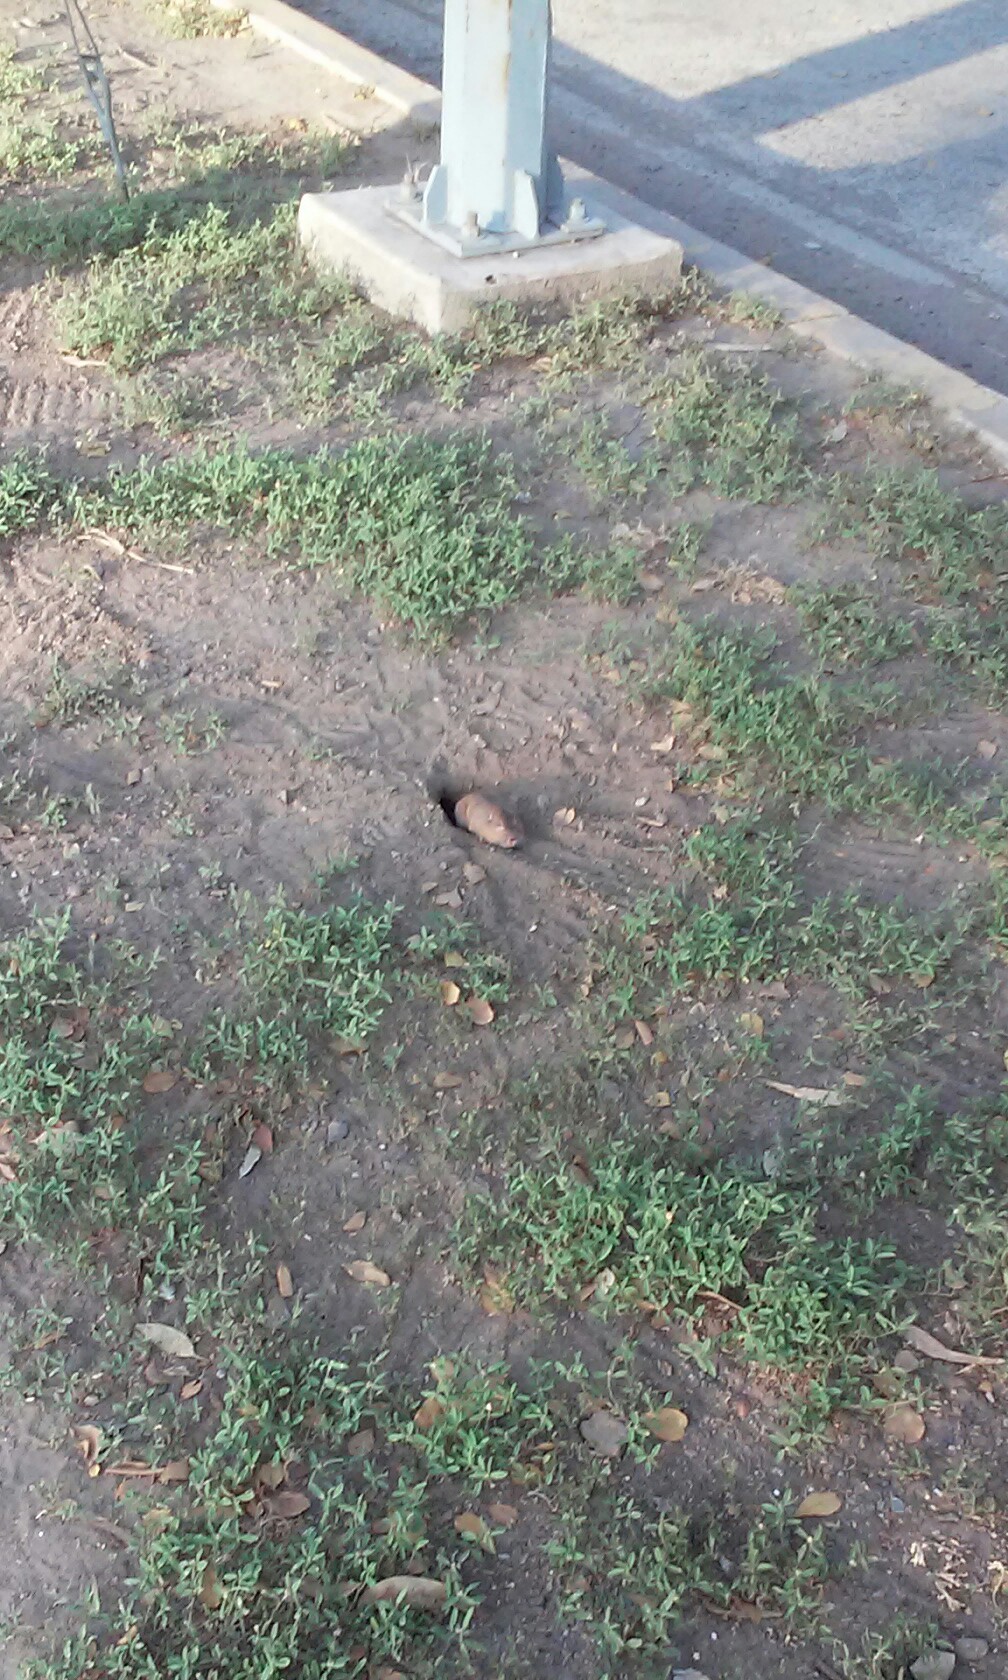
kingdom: Animalia
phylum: Chordata
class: Mammalia
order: Rodentia
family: Geomyidae
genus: Thomomys
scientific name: Thomomys bottae
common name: Botta's pocket gopher
